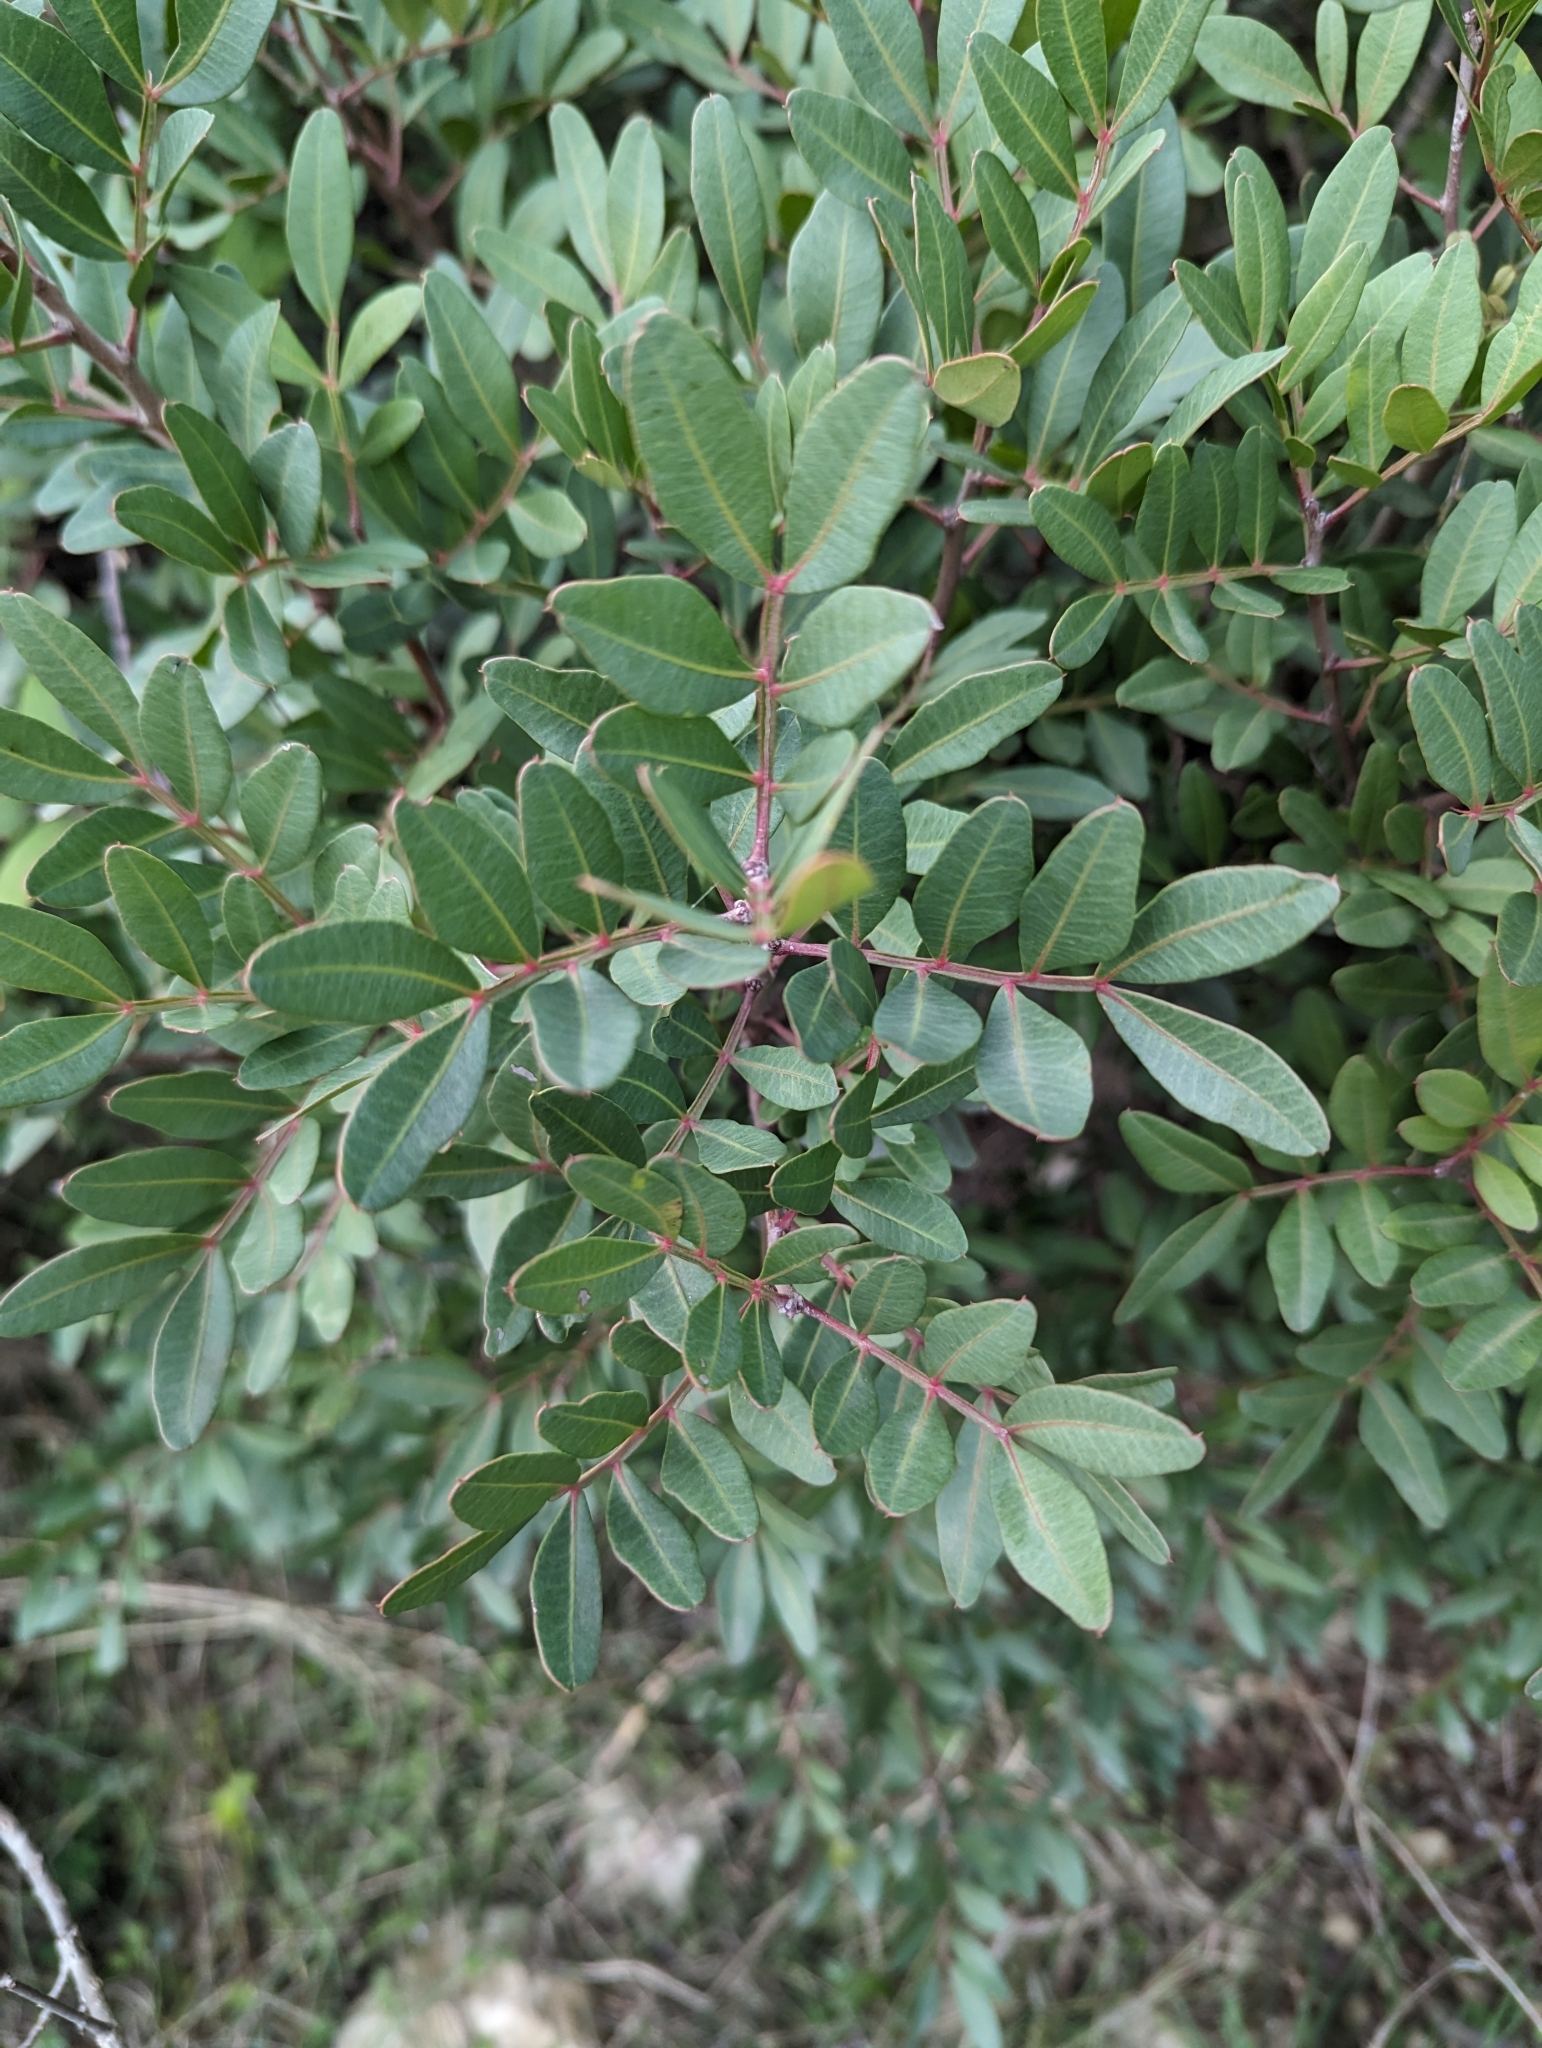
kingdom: Plantae
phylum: Tracheophyta
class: Magnoliopsida
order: Sapindales
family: Anacardiaceae
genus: Pistacia
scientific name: Pistacia lentiscus
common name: Lentisk
